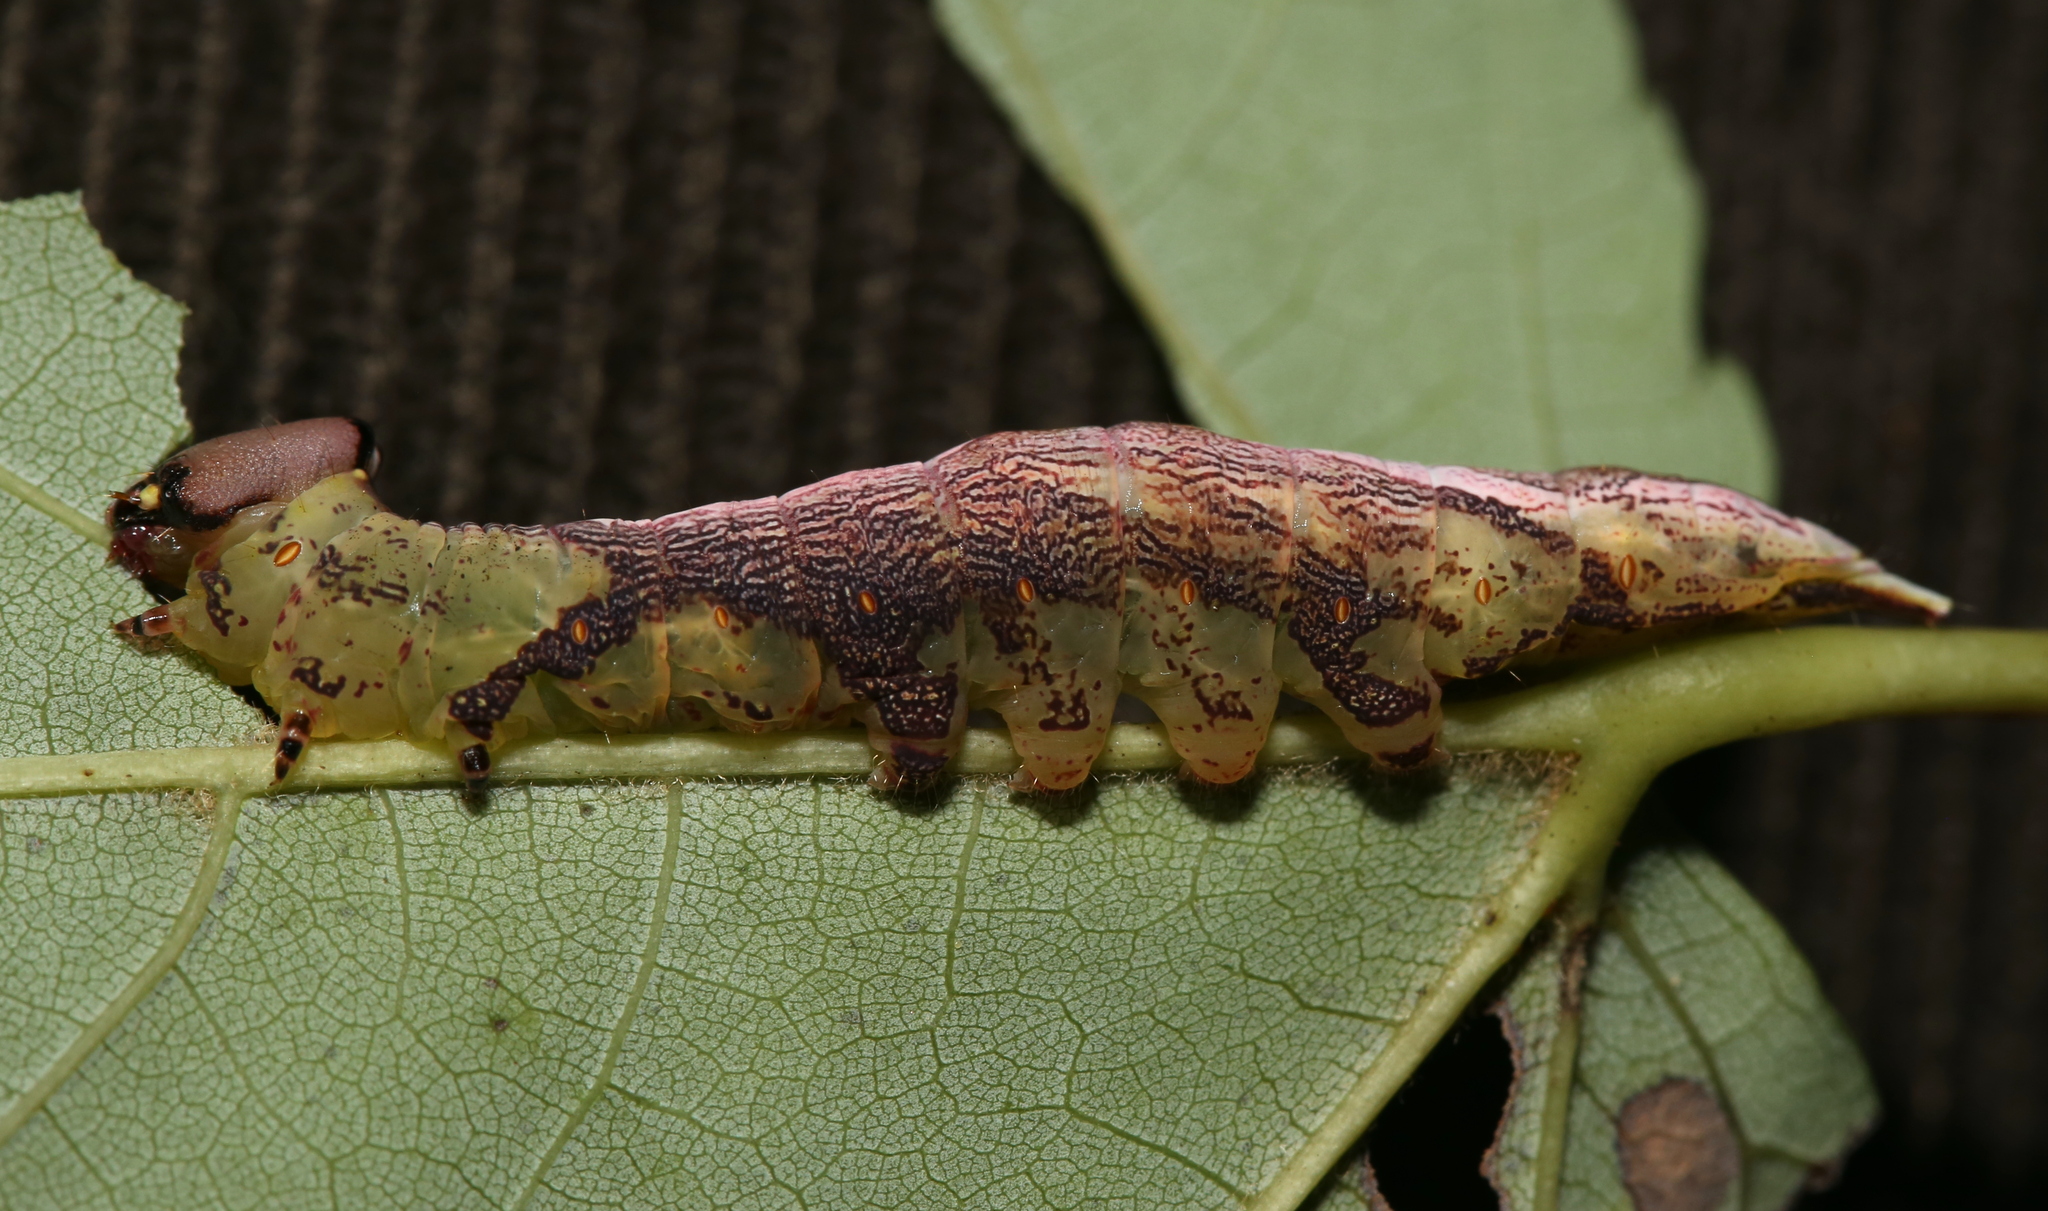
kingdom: Animalia
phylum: Arthropoda
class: Insecta
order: Lepidoptera
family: Notodontidae
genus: Disphragis
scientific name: Disphragis Cecrita biundata
